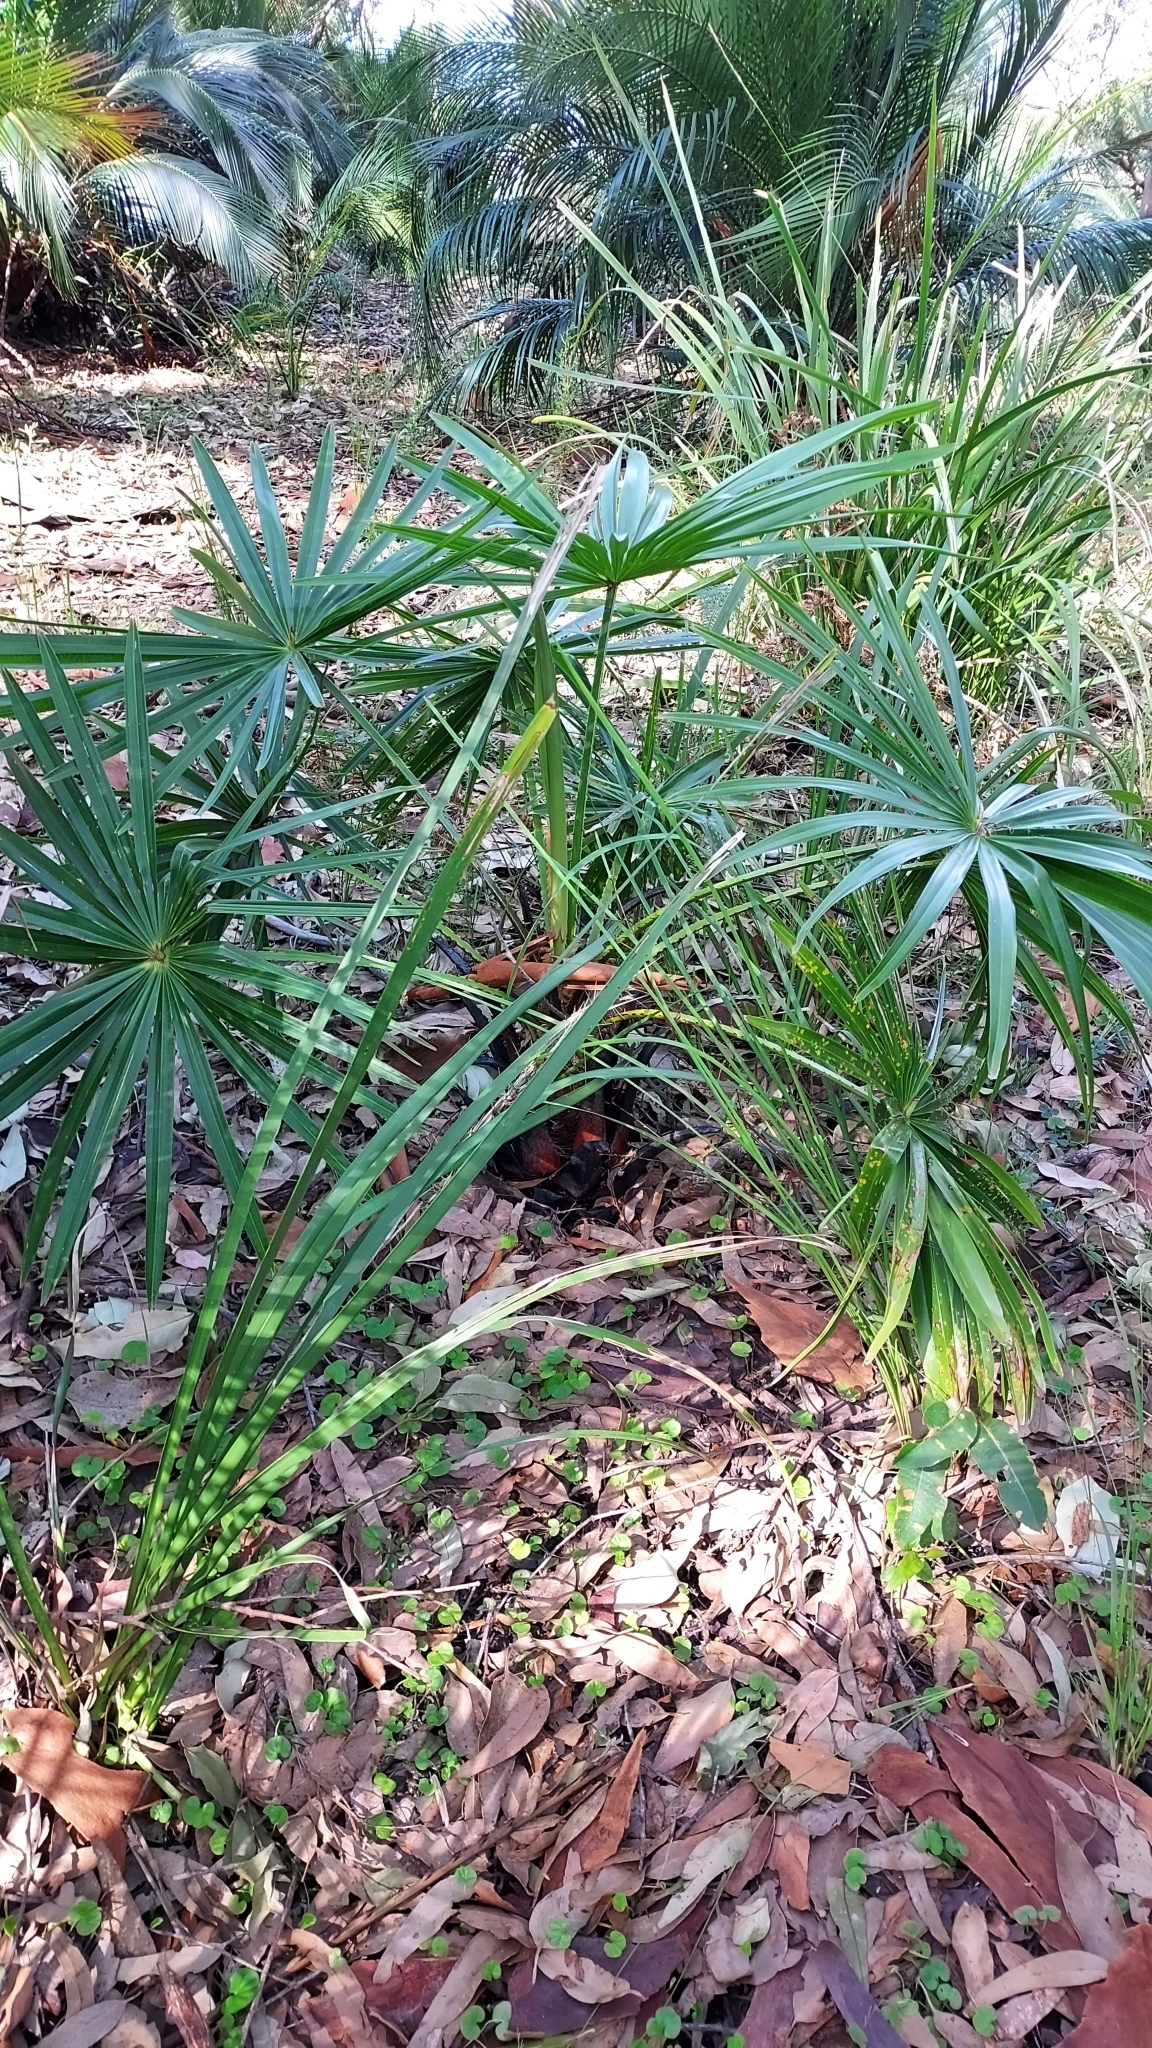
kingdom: Plantae
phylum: Tracheophyta
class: Liliopsida
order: Arecales
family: Arecaceae
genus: Livistona
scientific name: Livistona australis
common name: Cabbage fan palm
